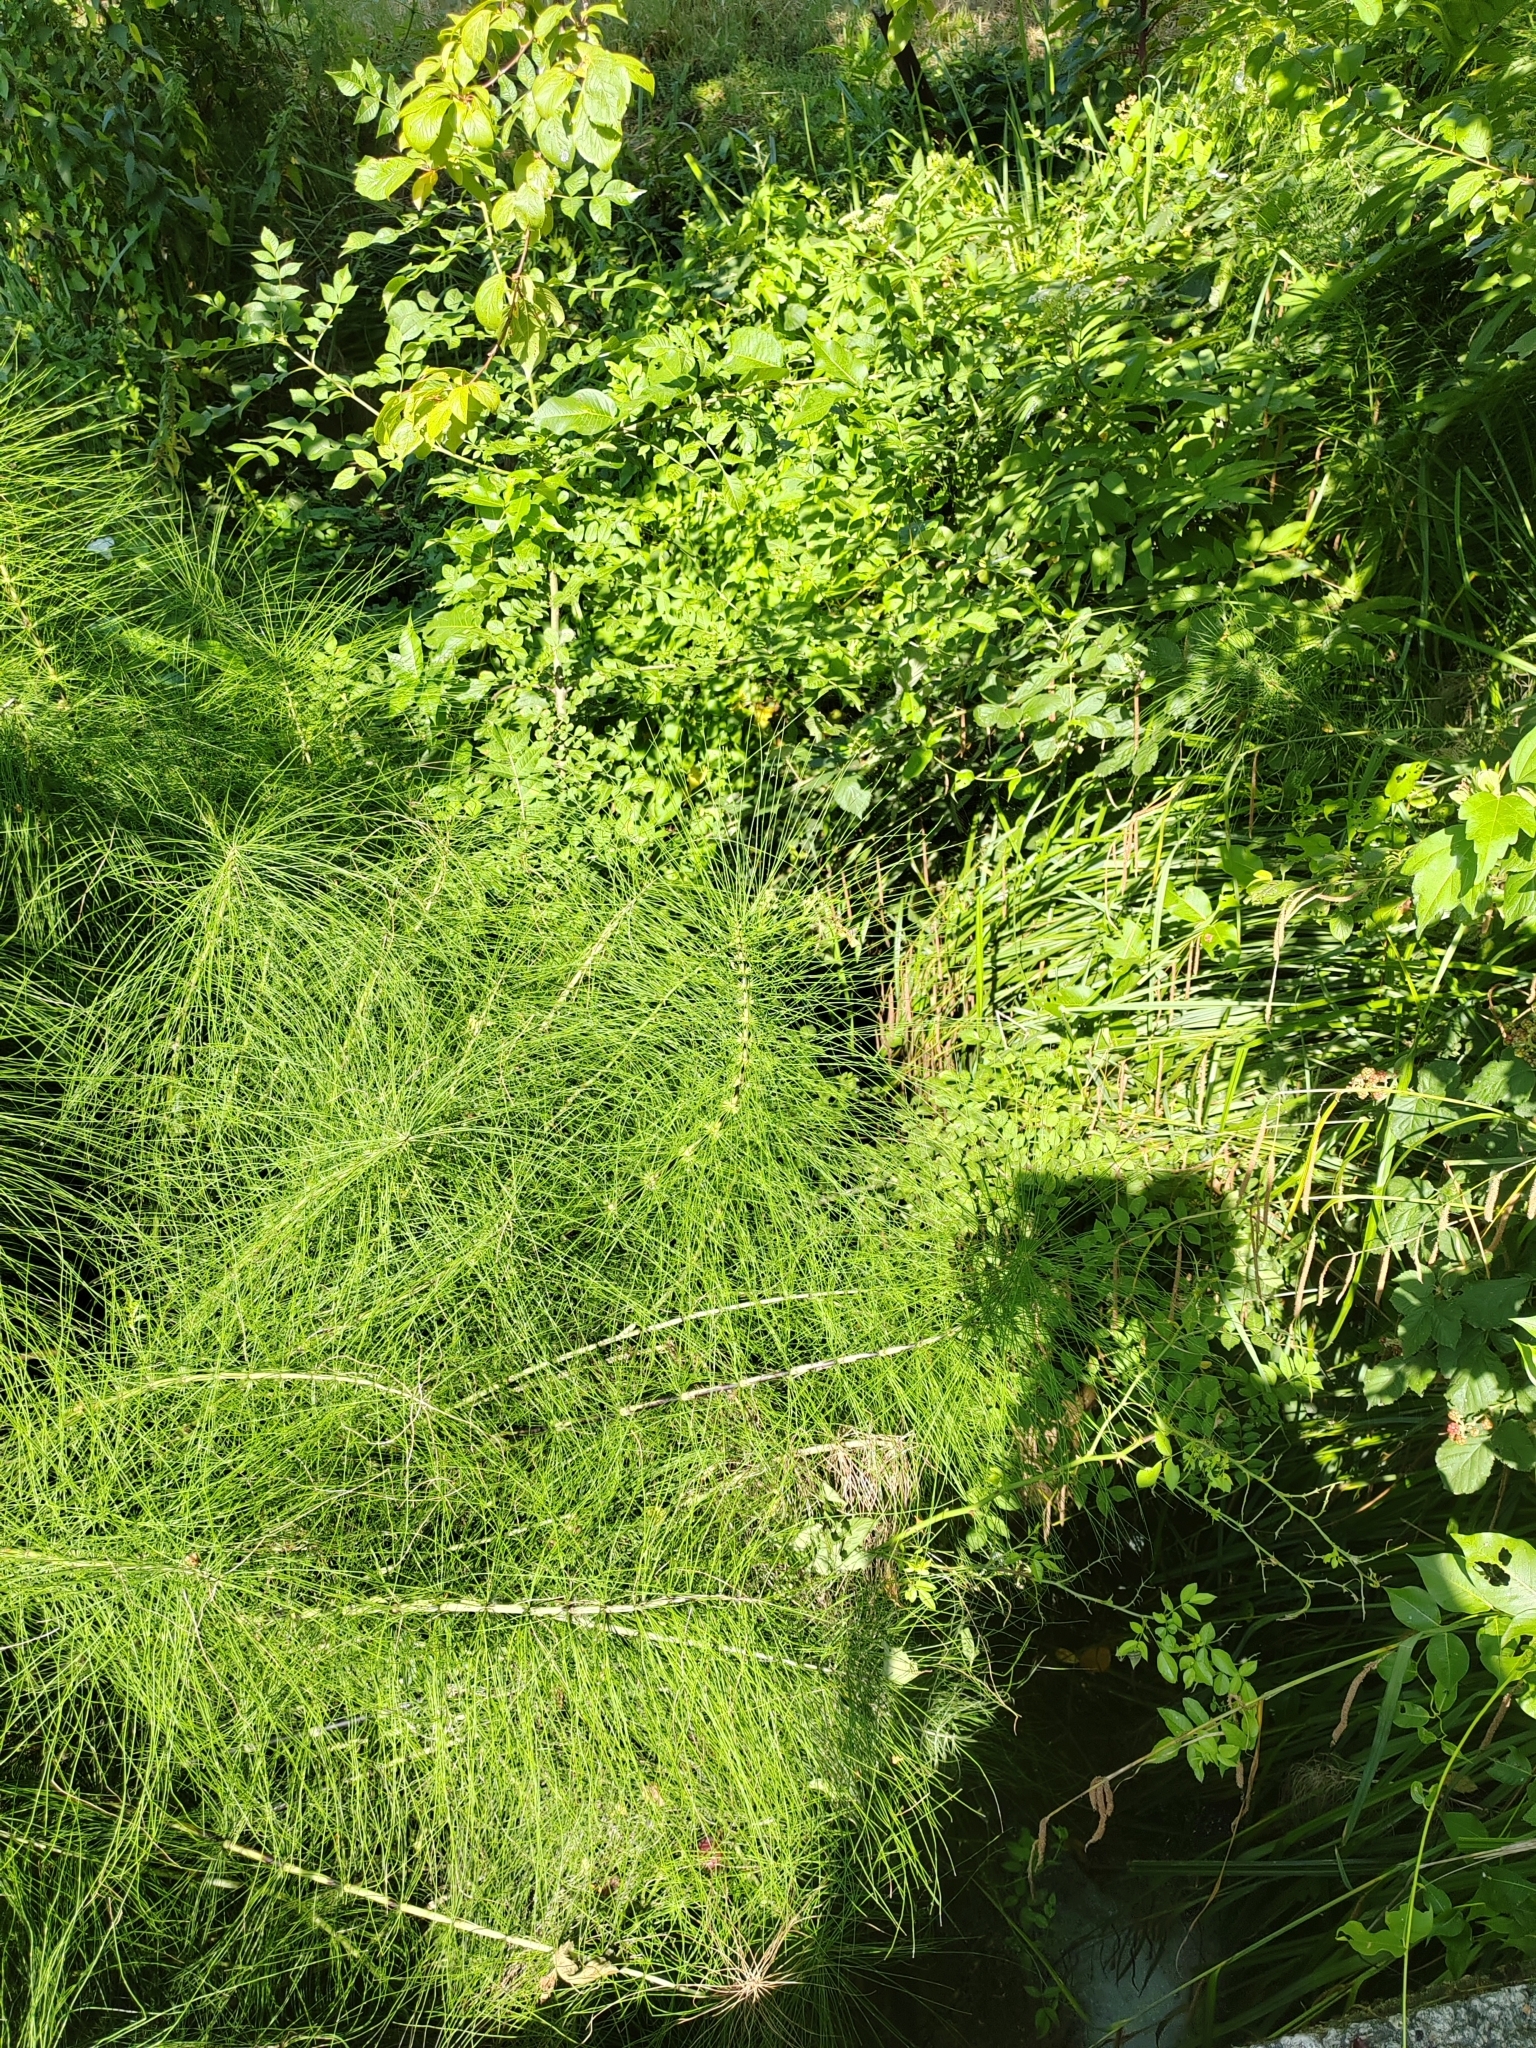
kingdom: Plantae
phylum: Tracheophyta
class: Polypodiopsida
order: Equisetales
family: Equisetaceae
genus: Equisetum
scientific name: Equisetum telmateia
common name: Great horsetail
